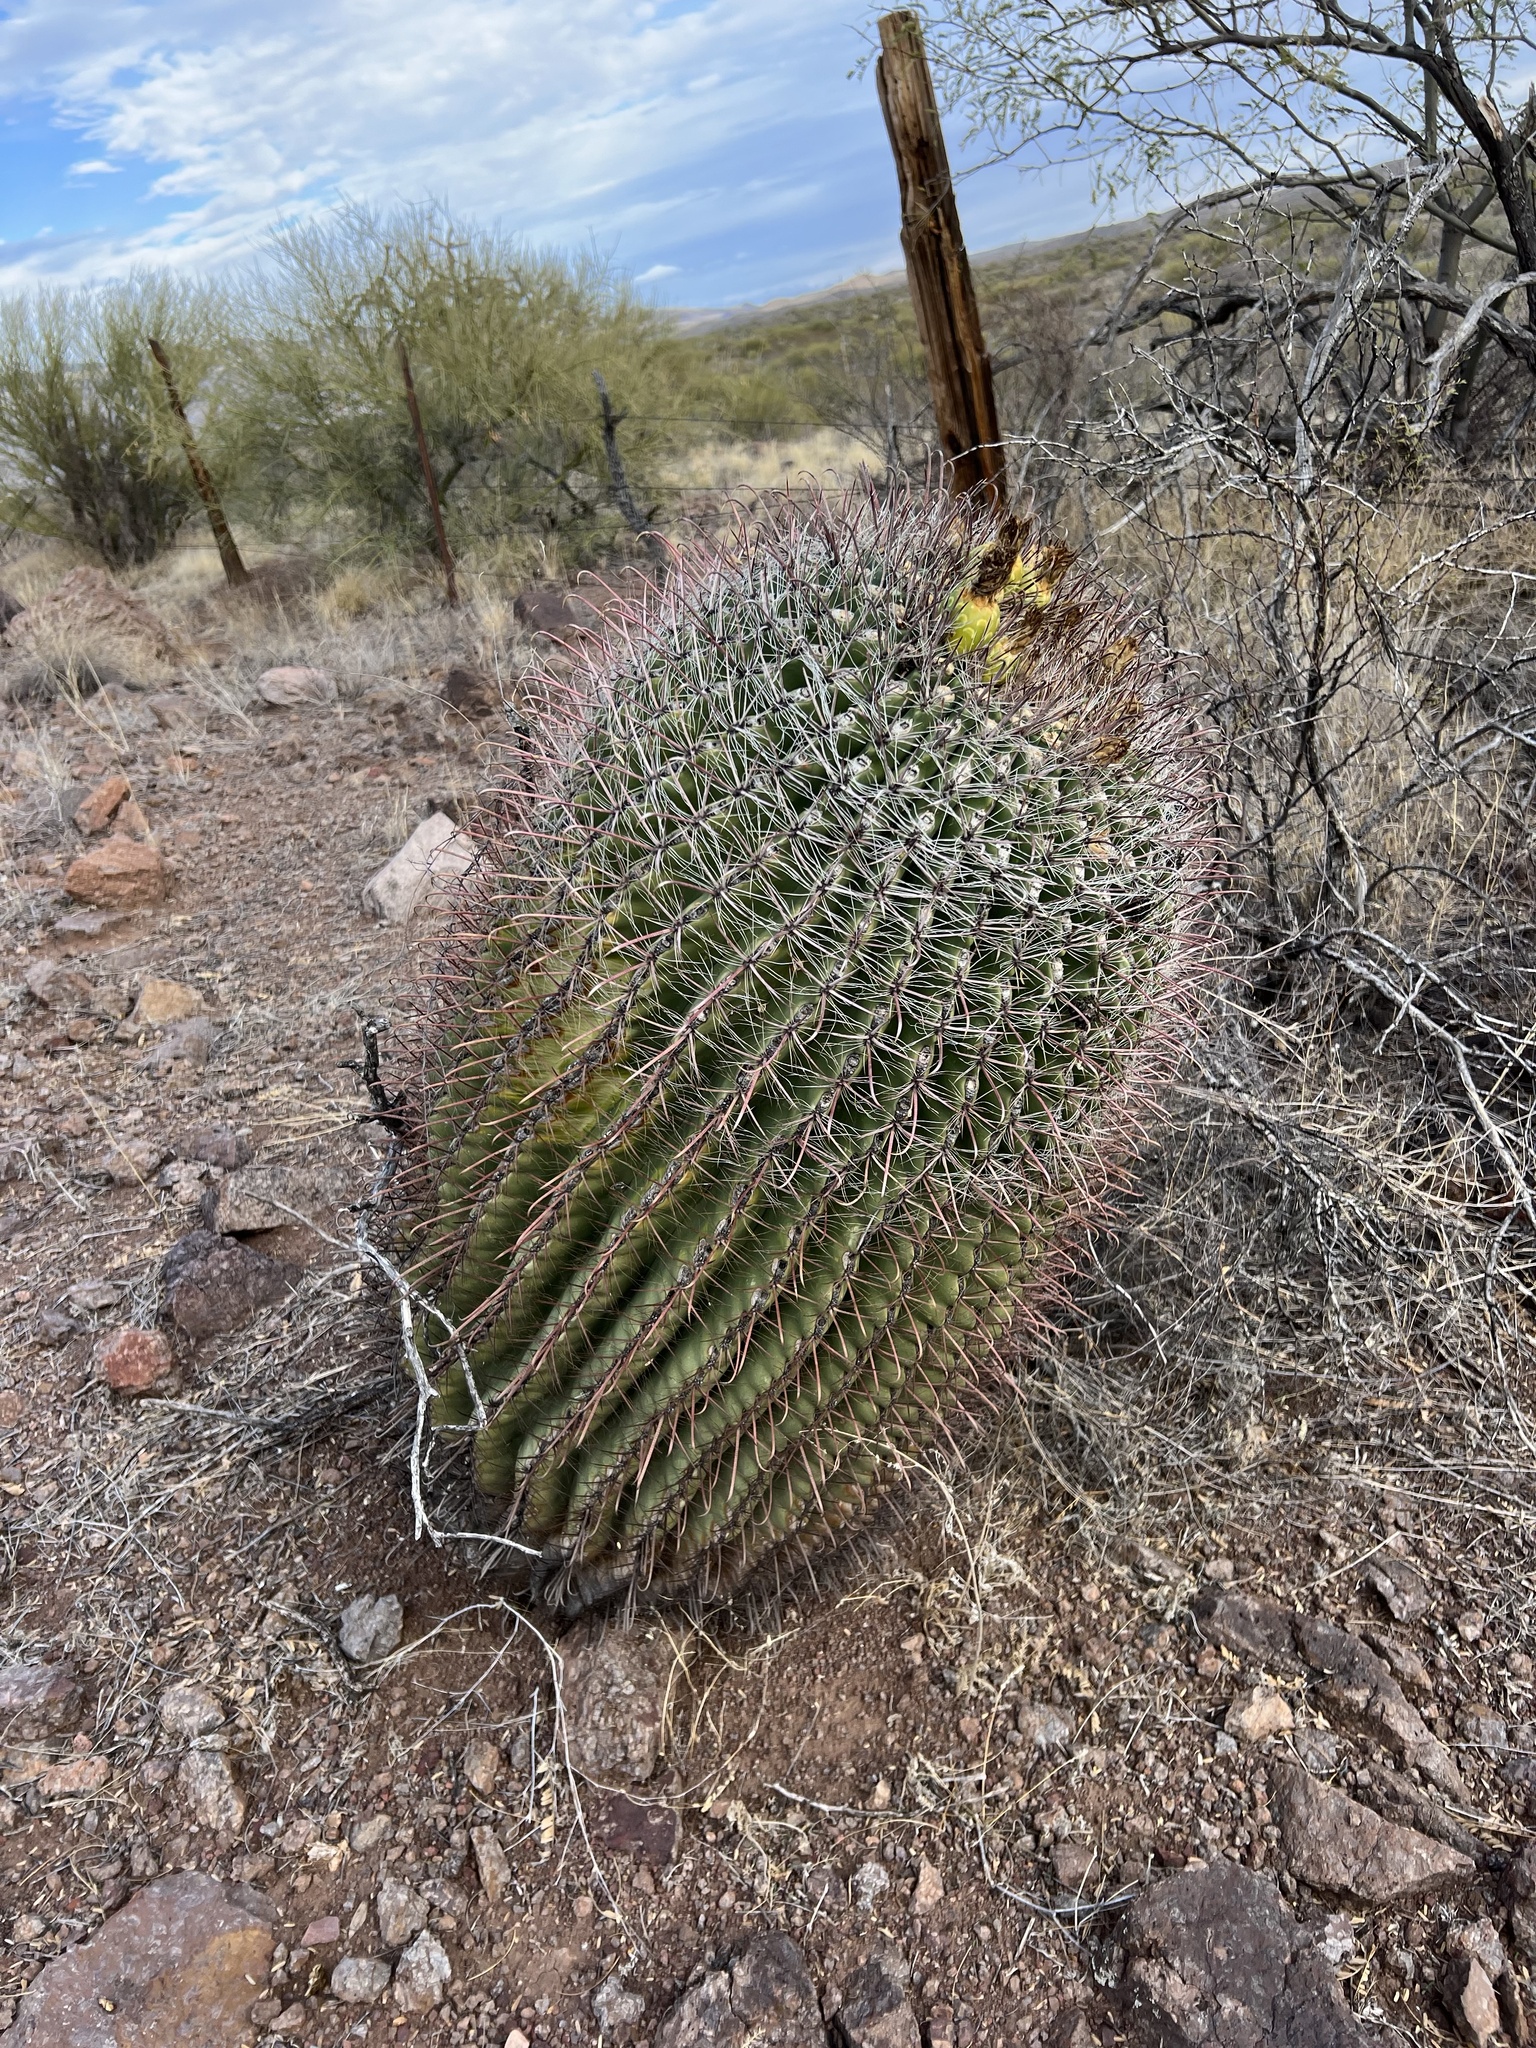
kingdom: Plantae
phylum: Tracheophyta
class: Magnoliopsida
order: Caryophyllales
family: Cactaceae
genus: Ferocactus
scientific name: Ferocactus wislizeni
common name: Candy barrel cactus
